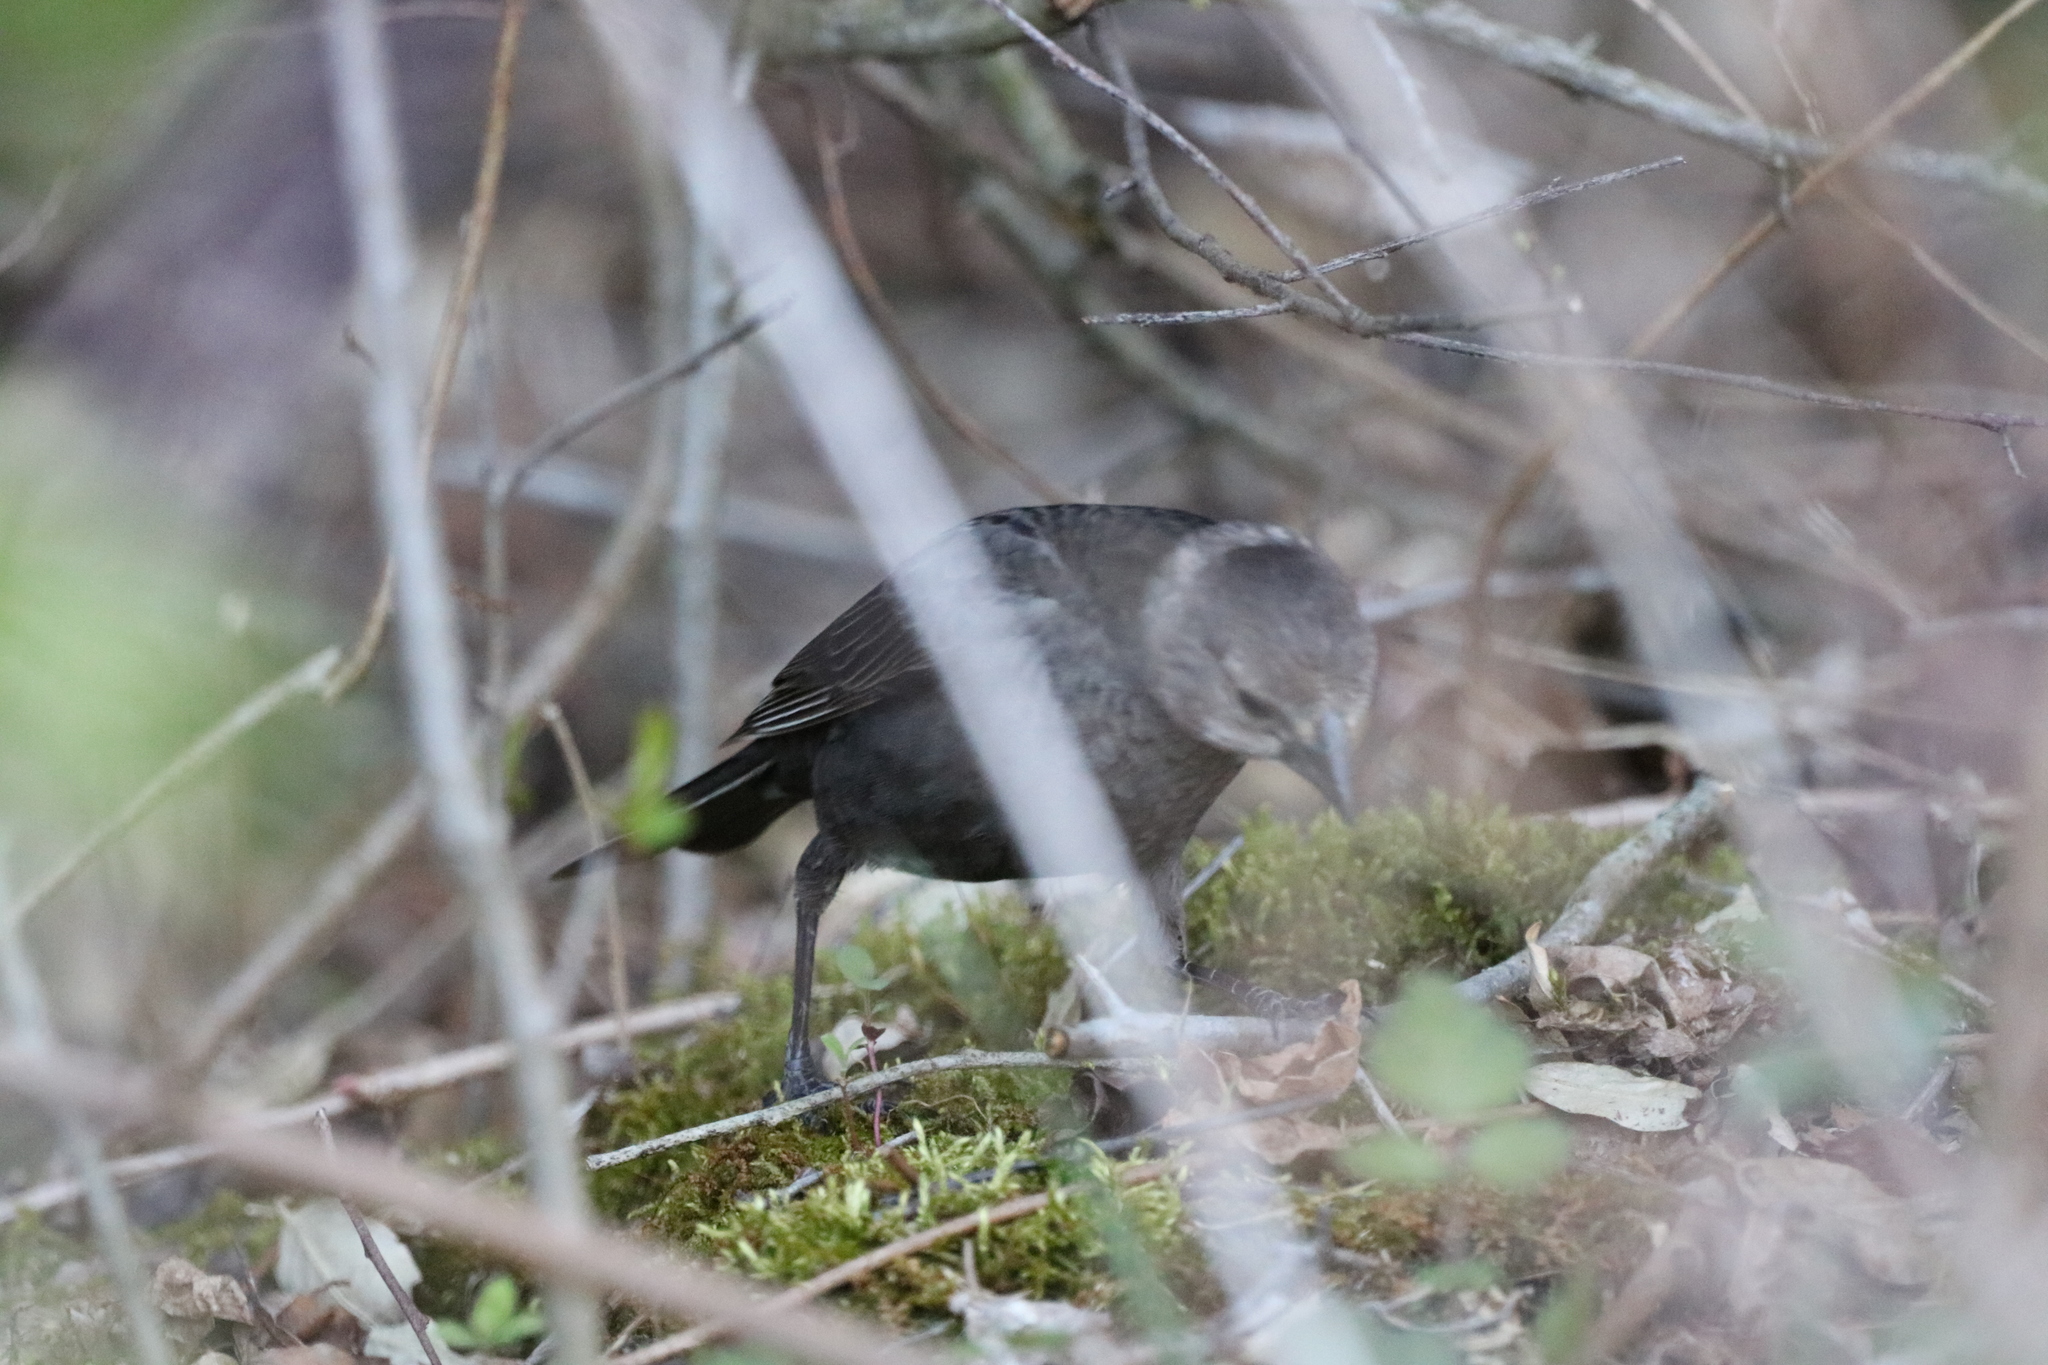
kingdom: Animalia
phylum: Chordata
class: Aves
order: Passeriformes
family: Icteridae
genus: Molothrus
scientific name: Molothrus ater
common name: Brown-headed cowbird
